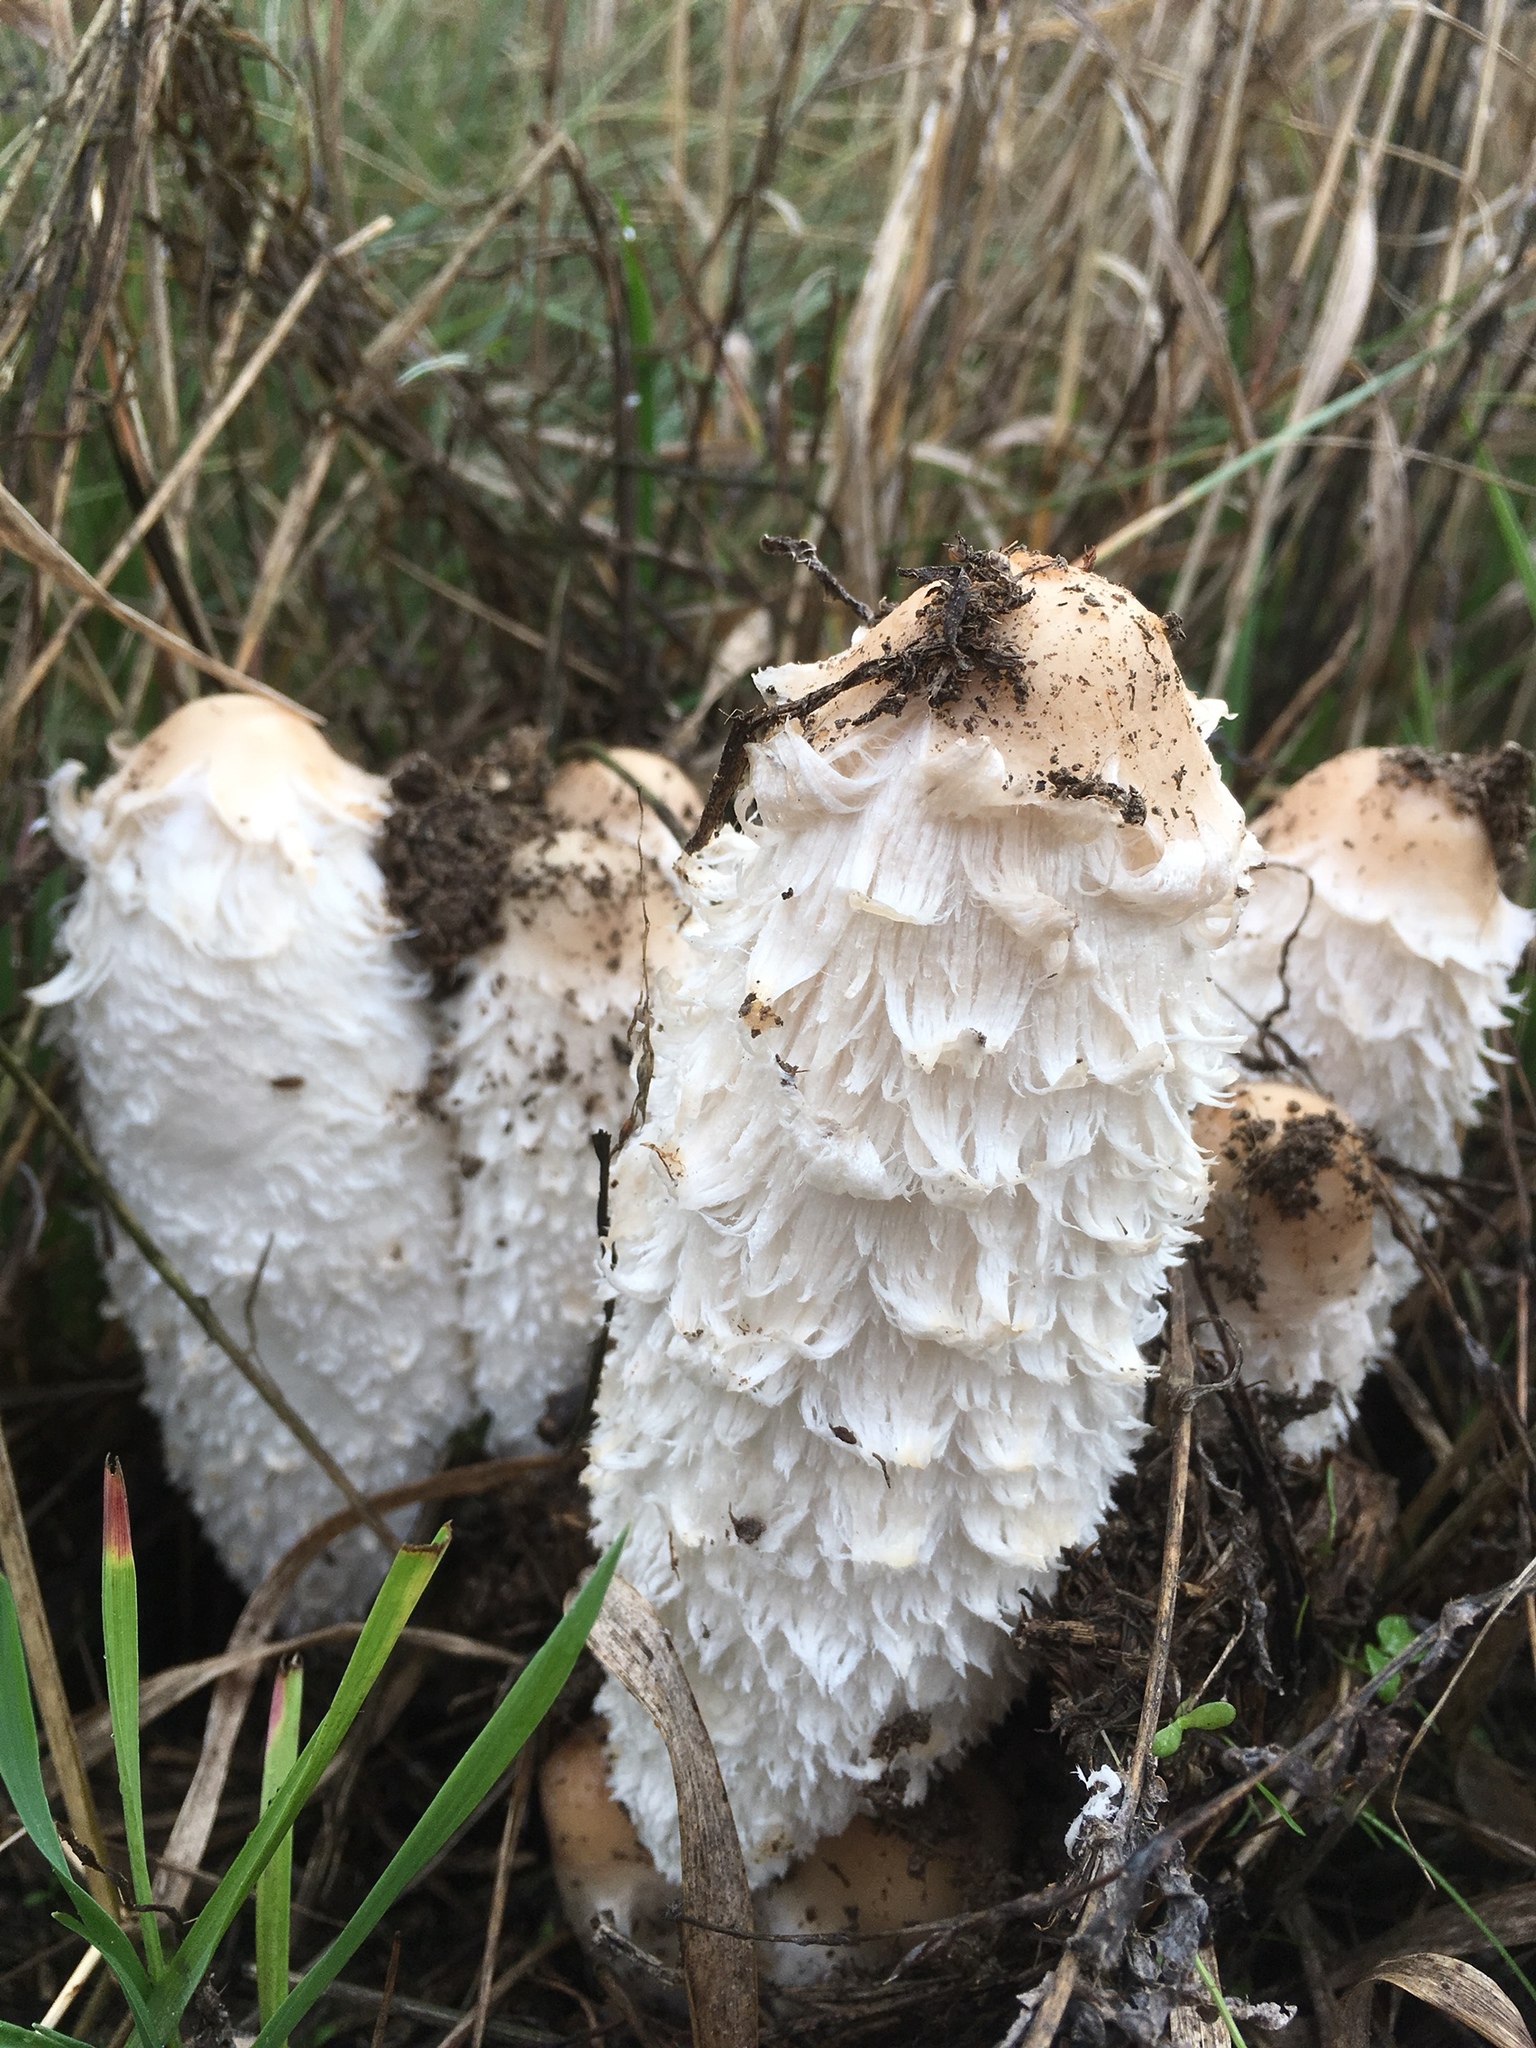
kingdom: Fungi
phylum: Basidiomycota
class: Agaricomycetes
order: Agaricales
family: Agaricaceae
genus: Coprinus
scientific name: Coprinus comatus
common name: Lawyer's wig
